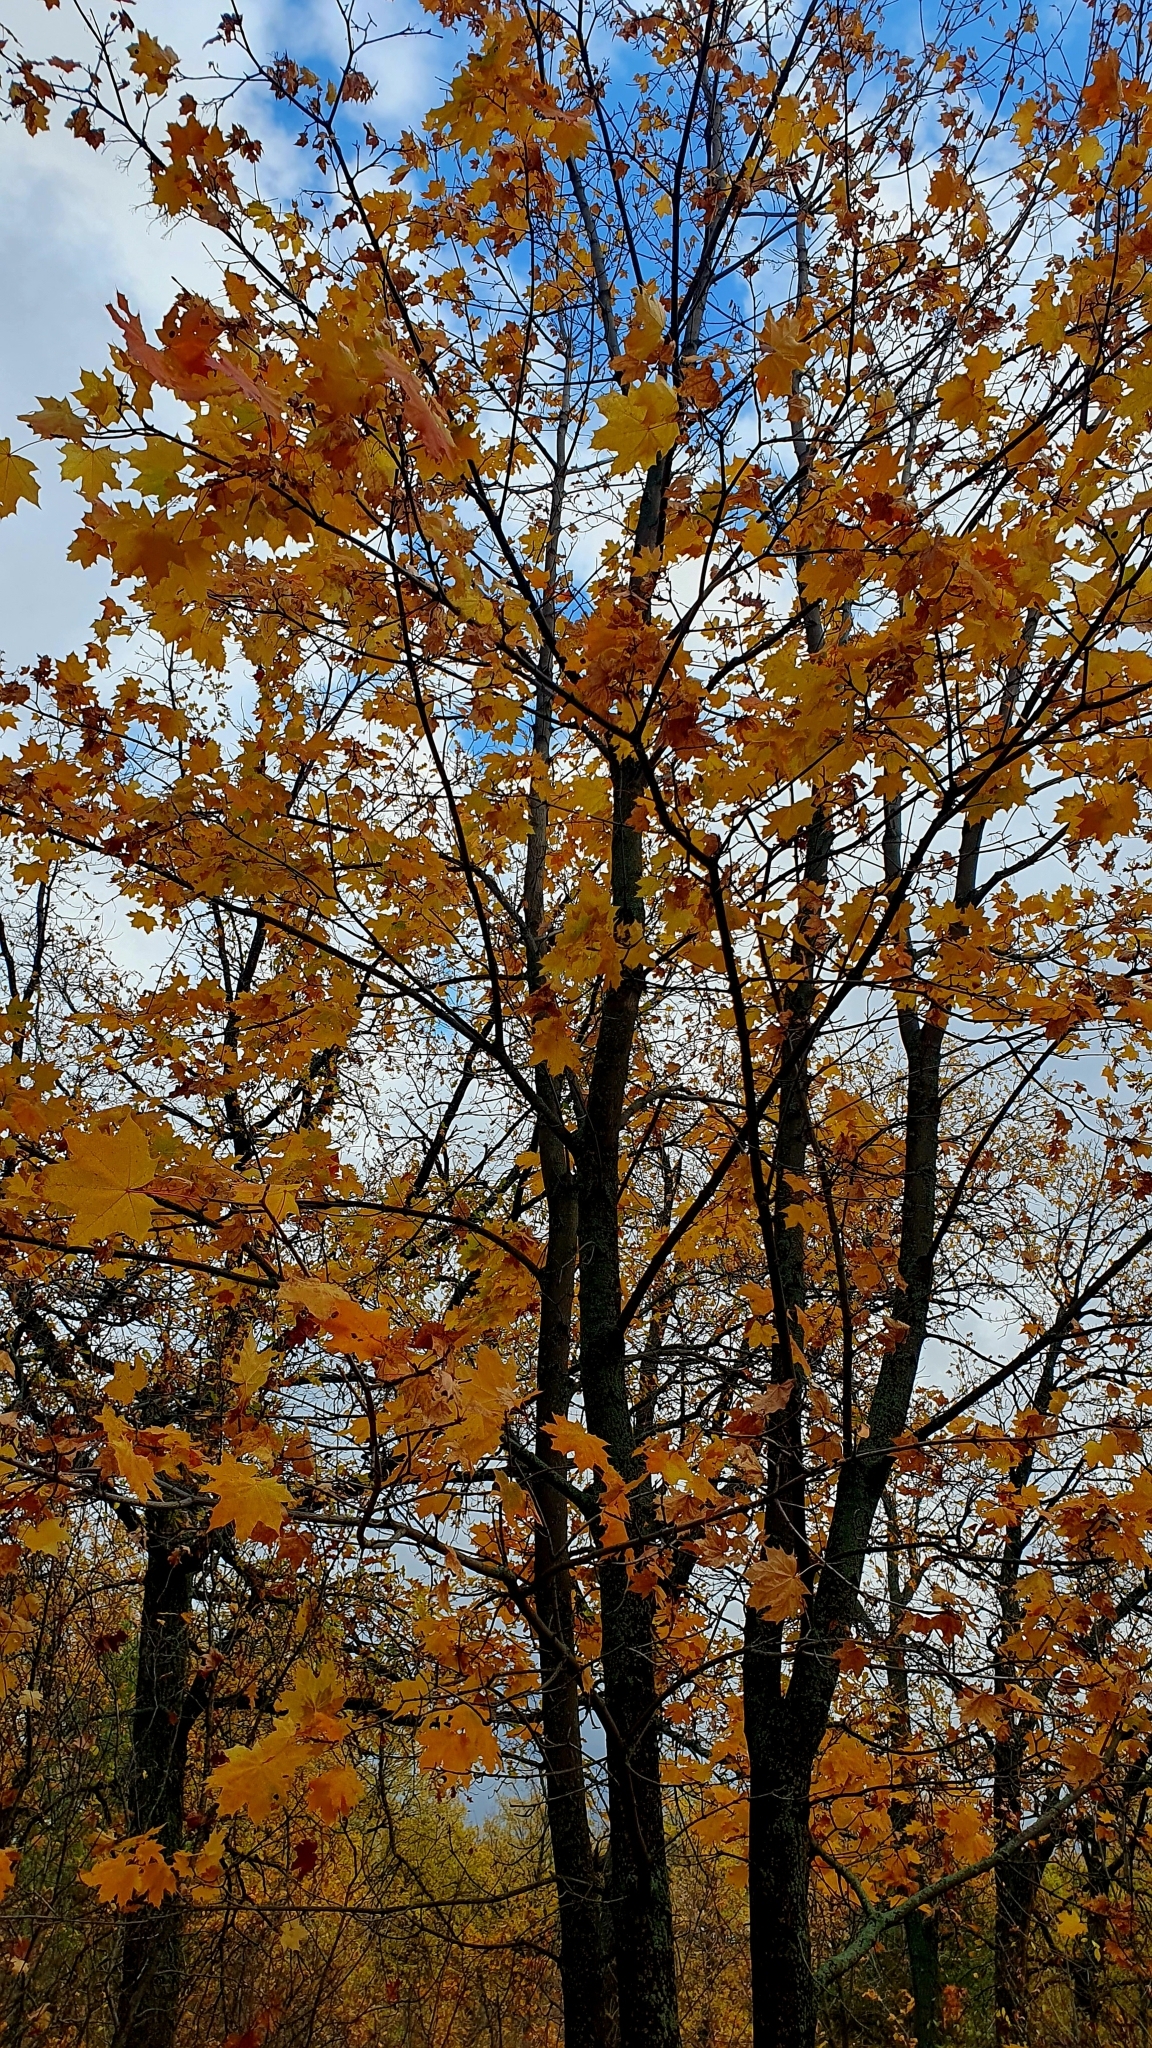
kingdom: Plantae
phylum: Tracheophyta
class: Magnoliopsida
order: Sapindales
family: Sapindaceae
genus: Acer
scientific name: Acer platanoides
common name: Norway maple
